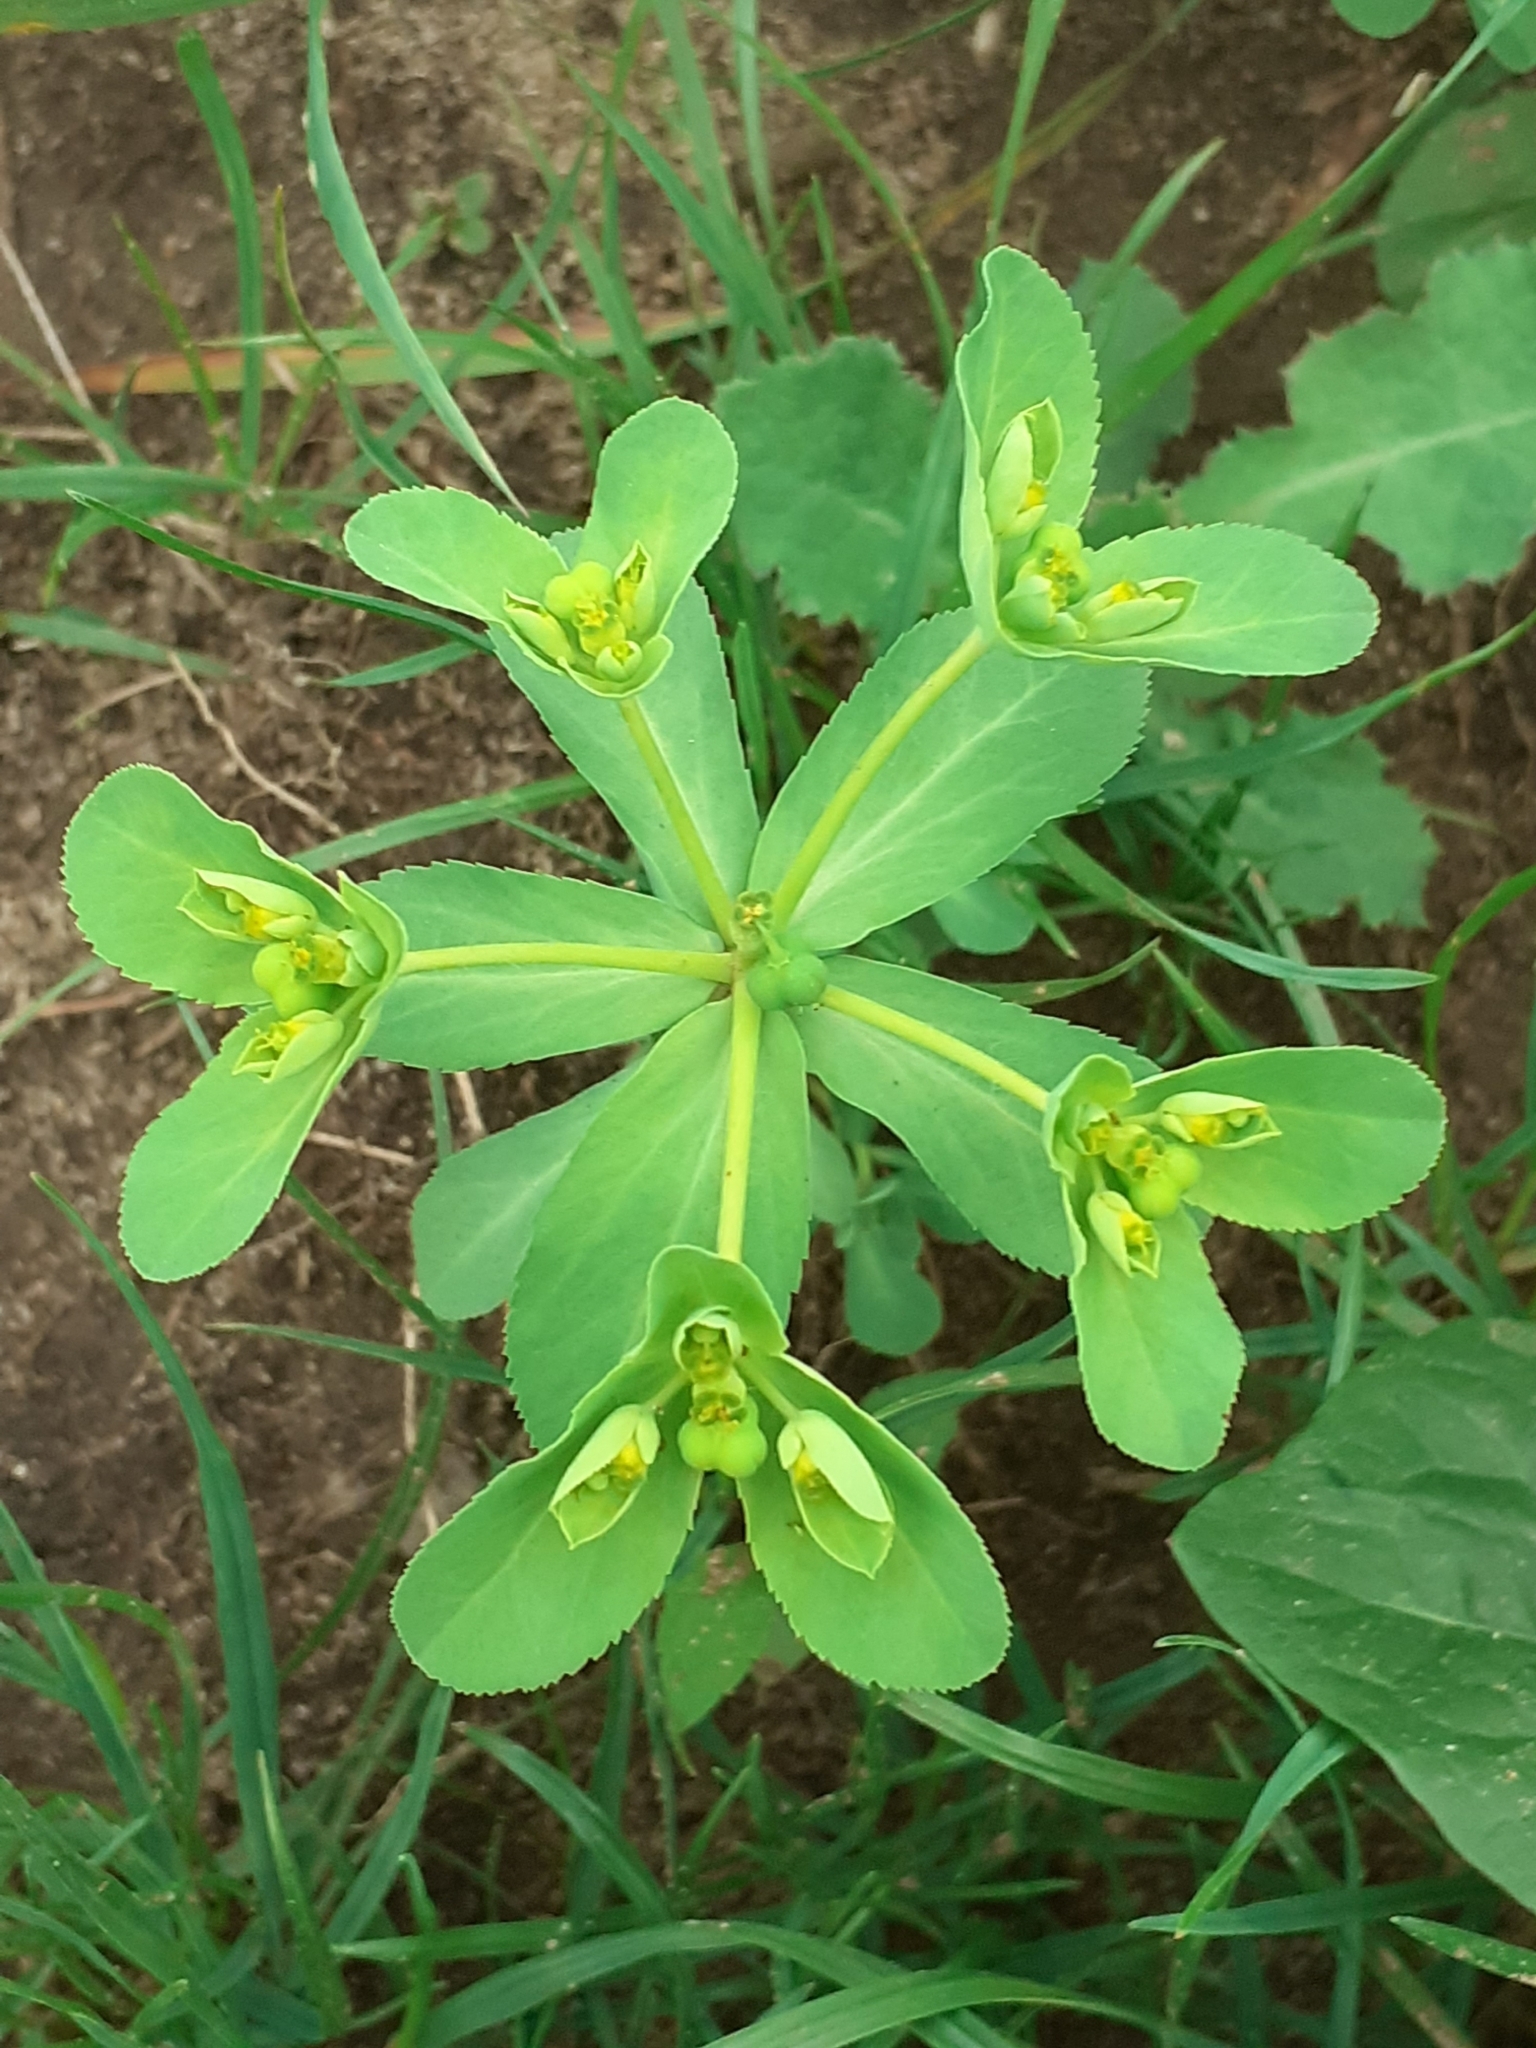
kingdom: Plantae
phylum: Tracheophyta
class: Magnoliopsida
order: Malpighiales
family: Euphorbiaceae
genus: Euphorbia
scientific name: Euphorbia helioscopia
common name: Sun spurge
